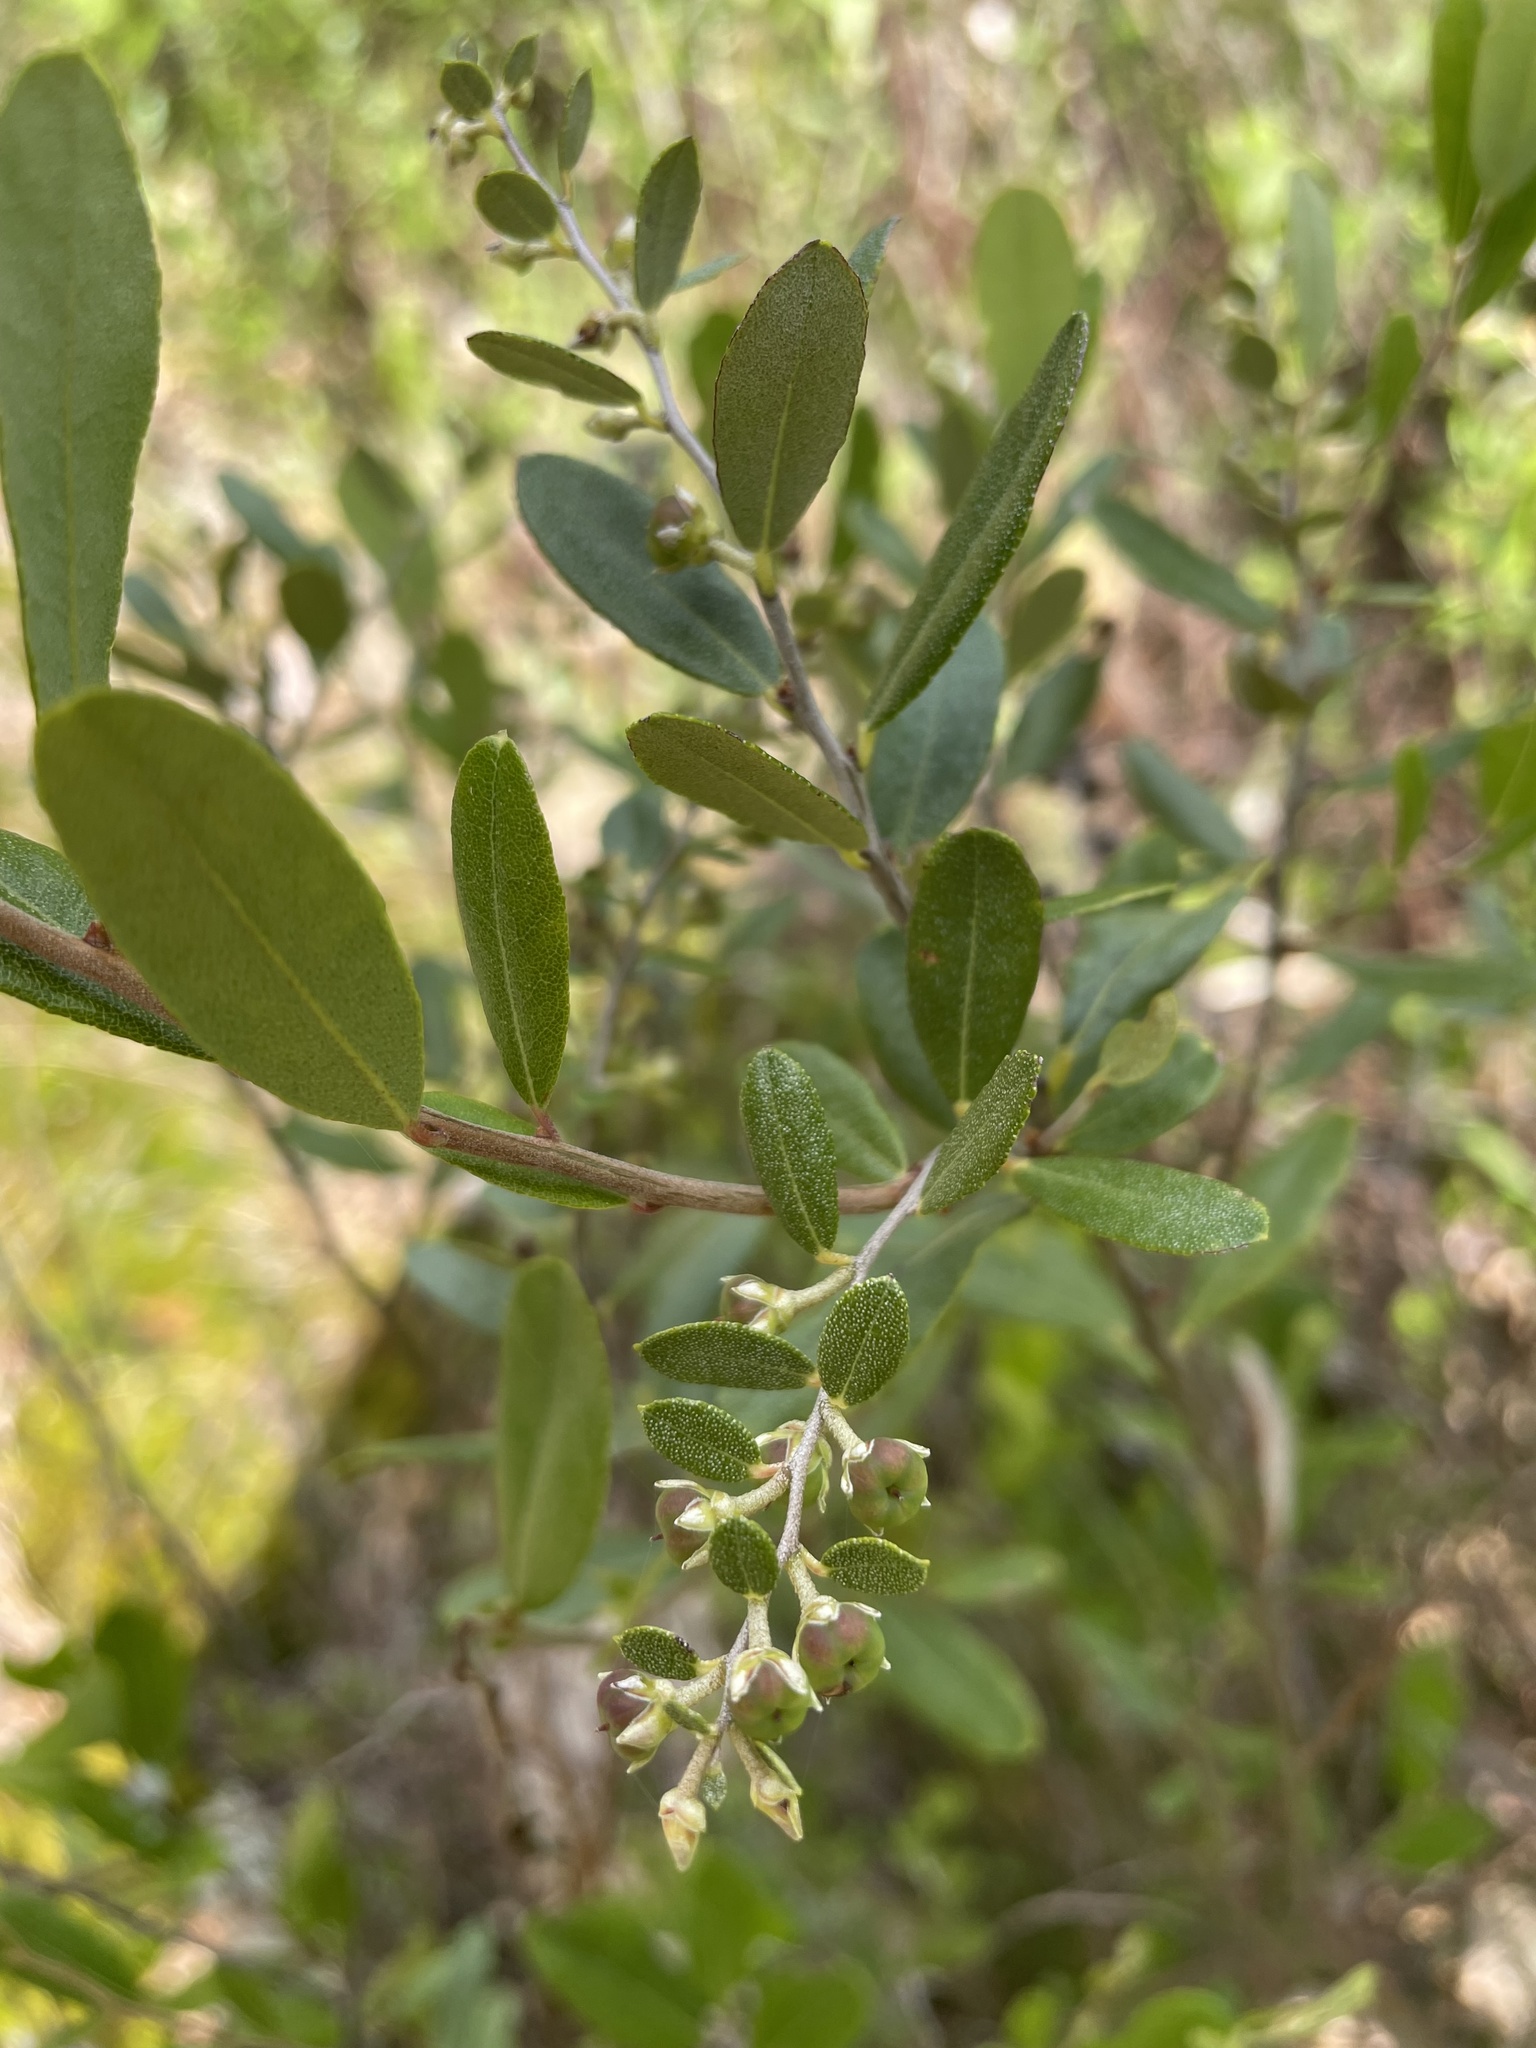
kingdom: Plantae
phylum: Tracheophyta
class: Magnoliopsida
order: Ericales
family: Ericaceae
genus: Chamaedaphne
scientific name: Chamaedaphne calyculata
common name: Leatherleaf
